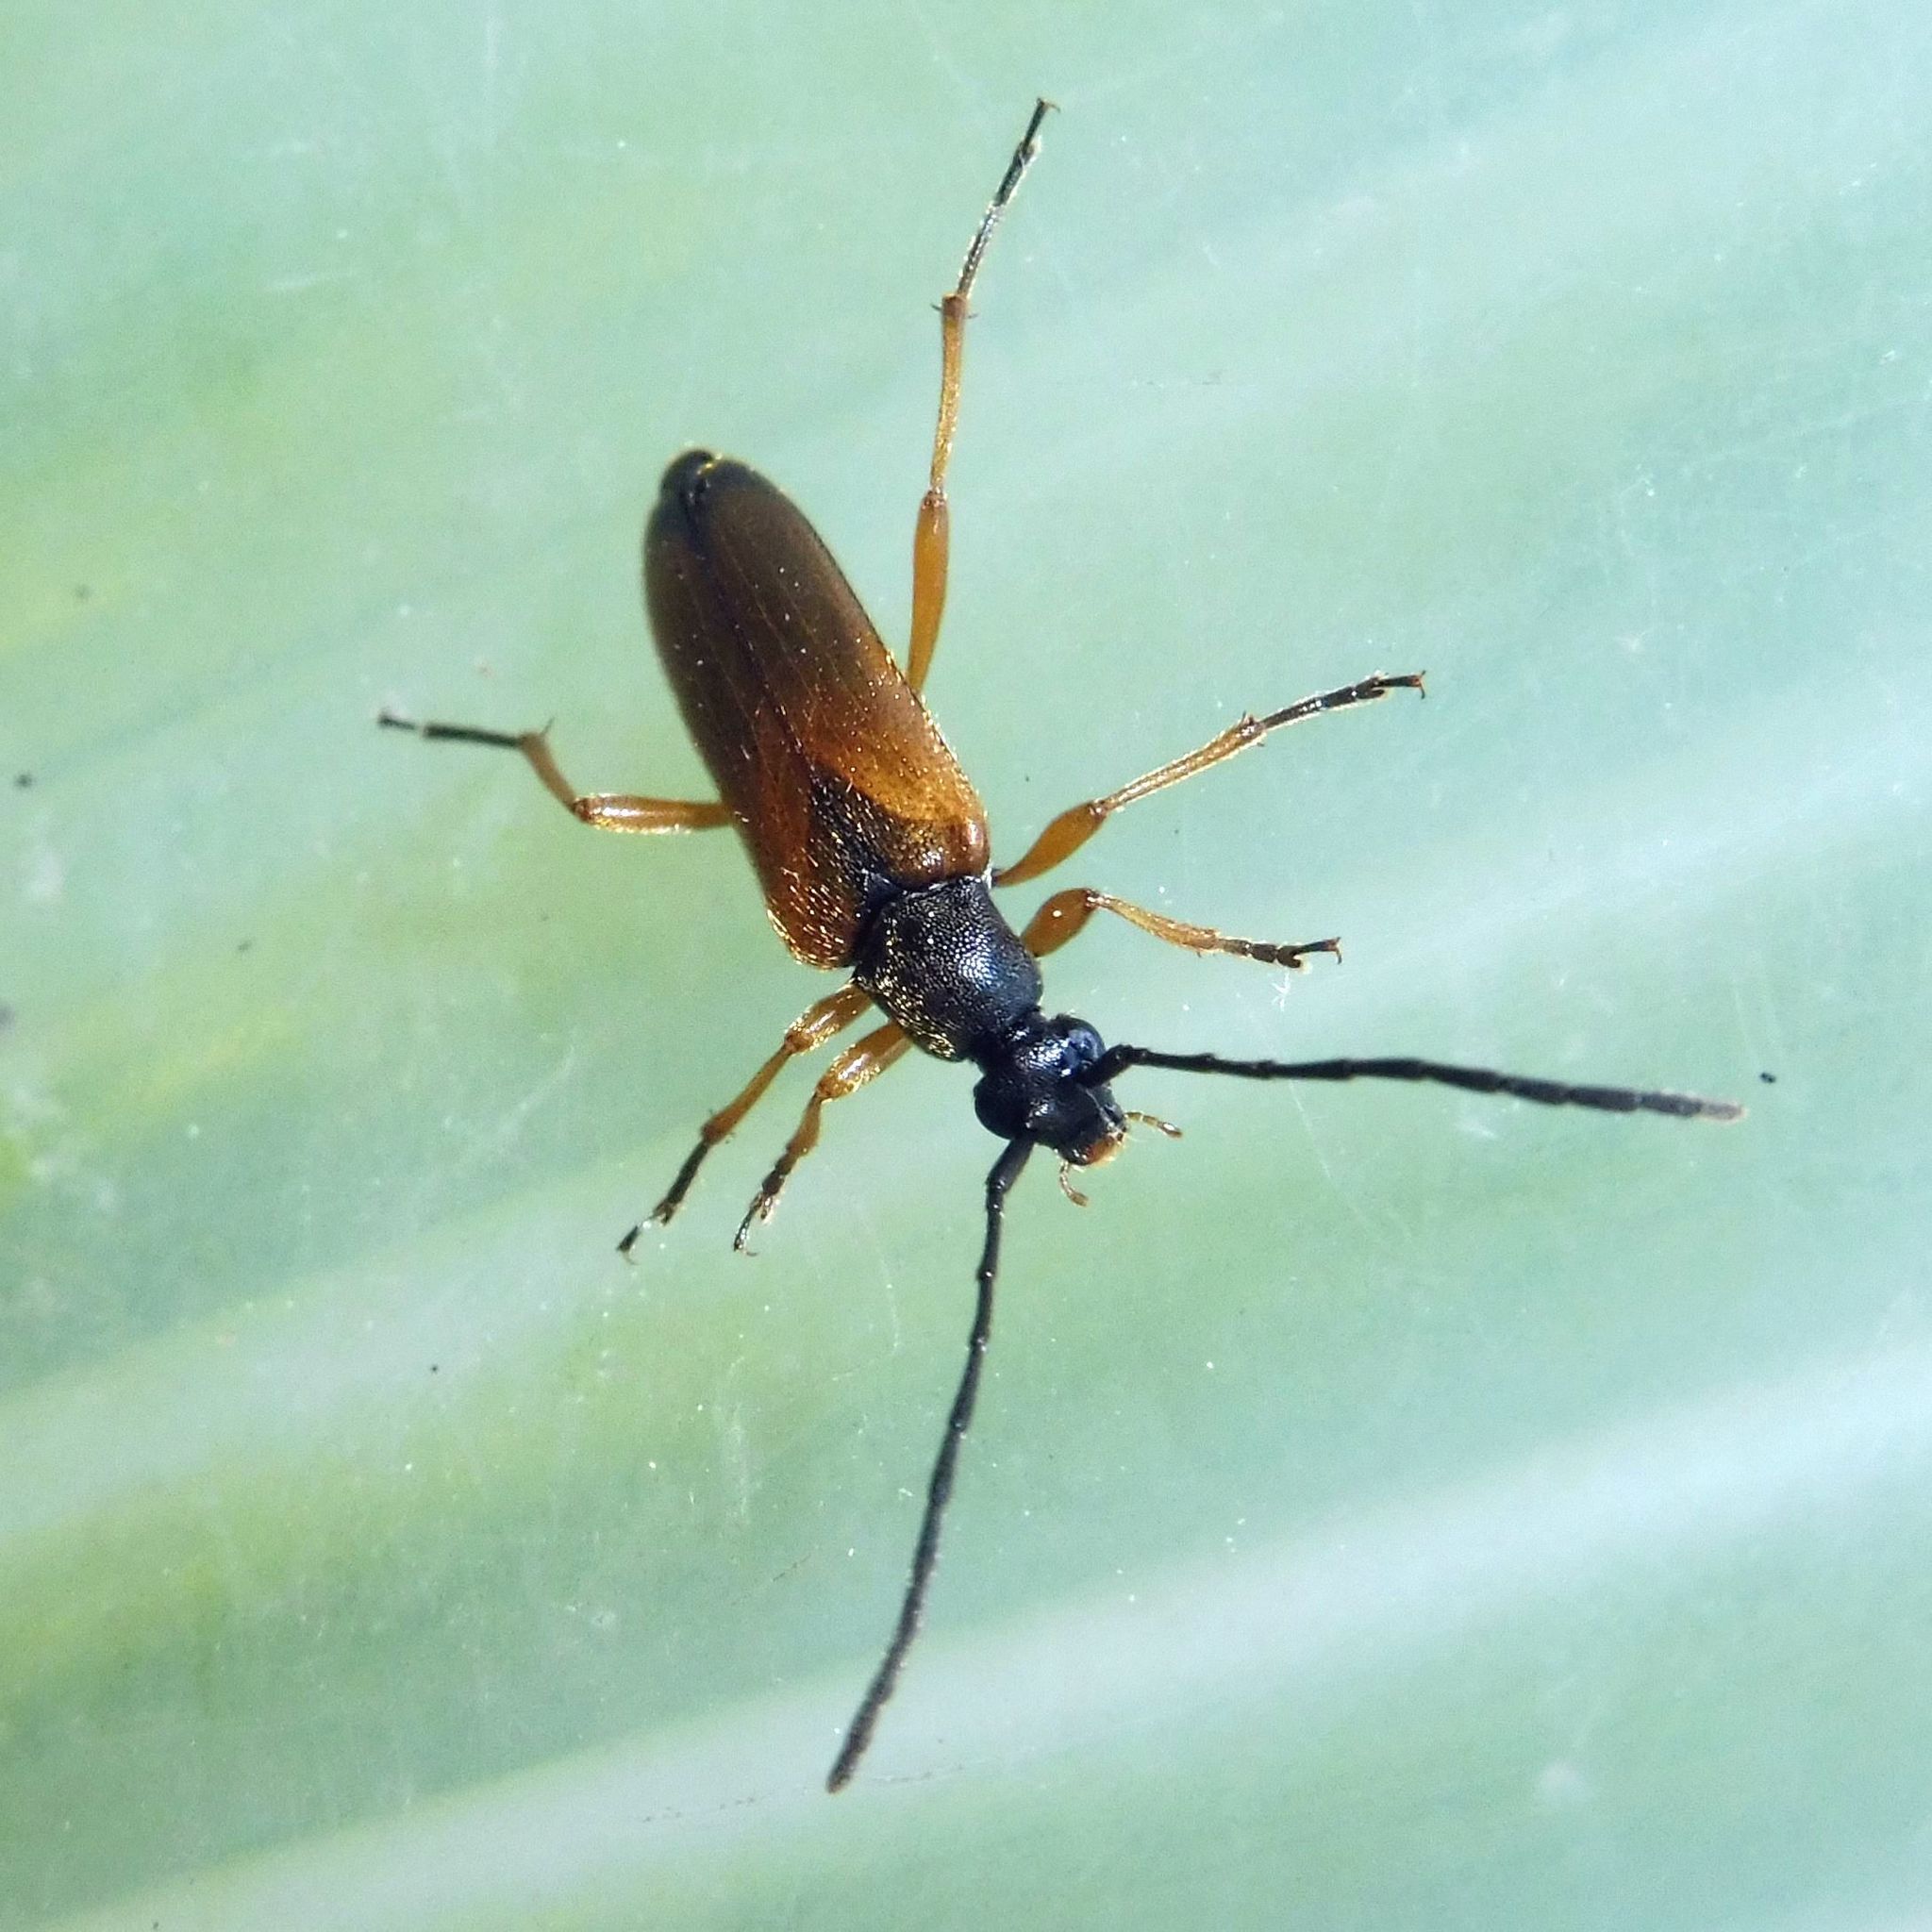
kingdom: Animalia
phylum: Arthropoda
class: Insecta
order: Coleoptera
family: Cerambycidae
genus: Alosterna
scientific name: Alosterna tabacicolor
